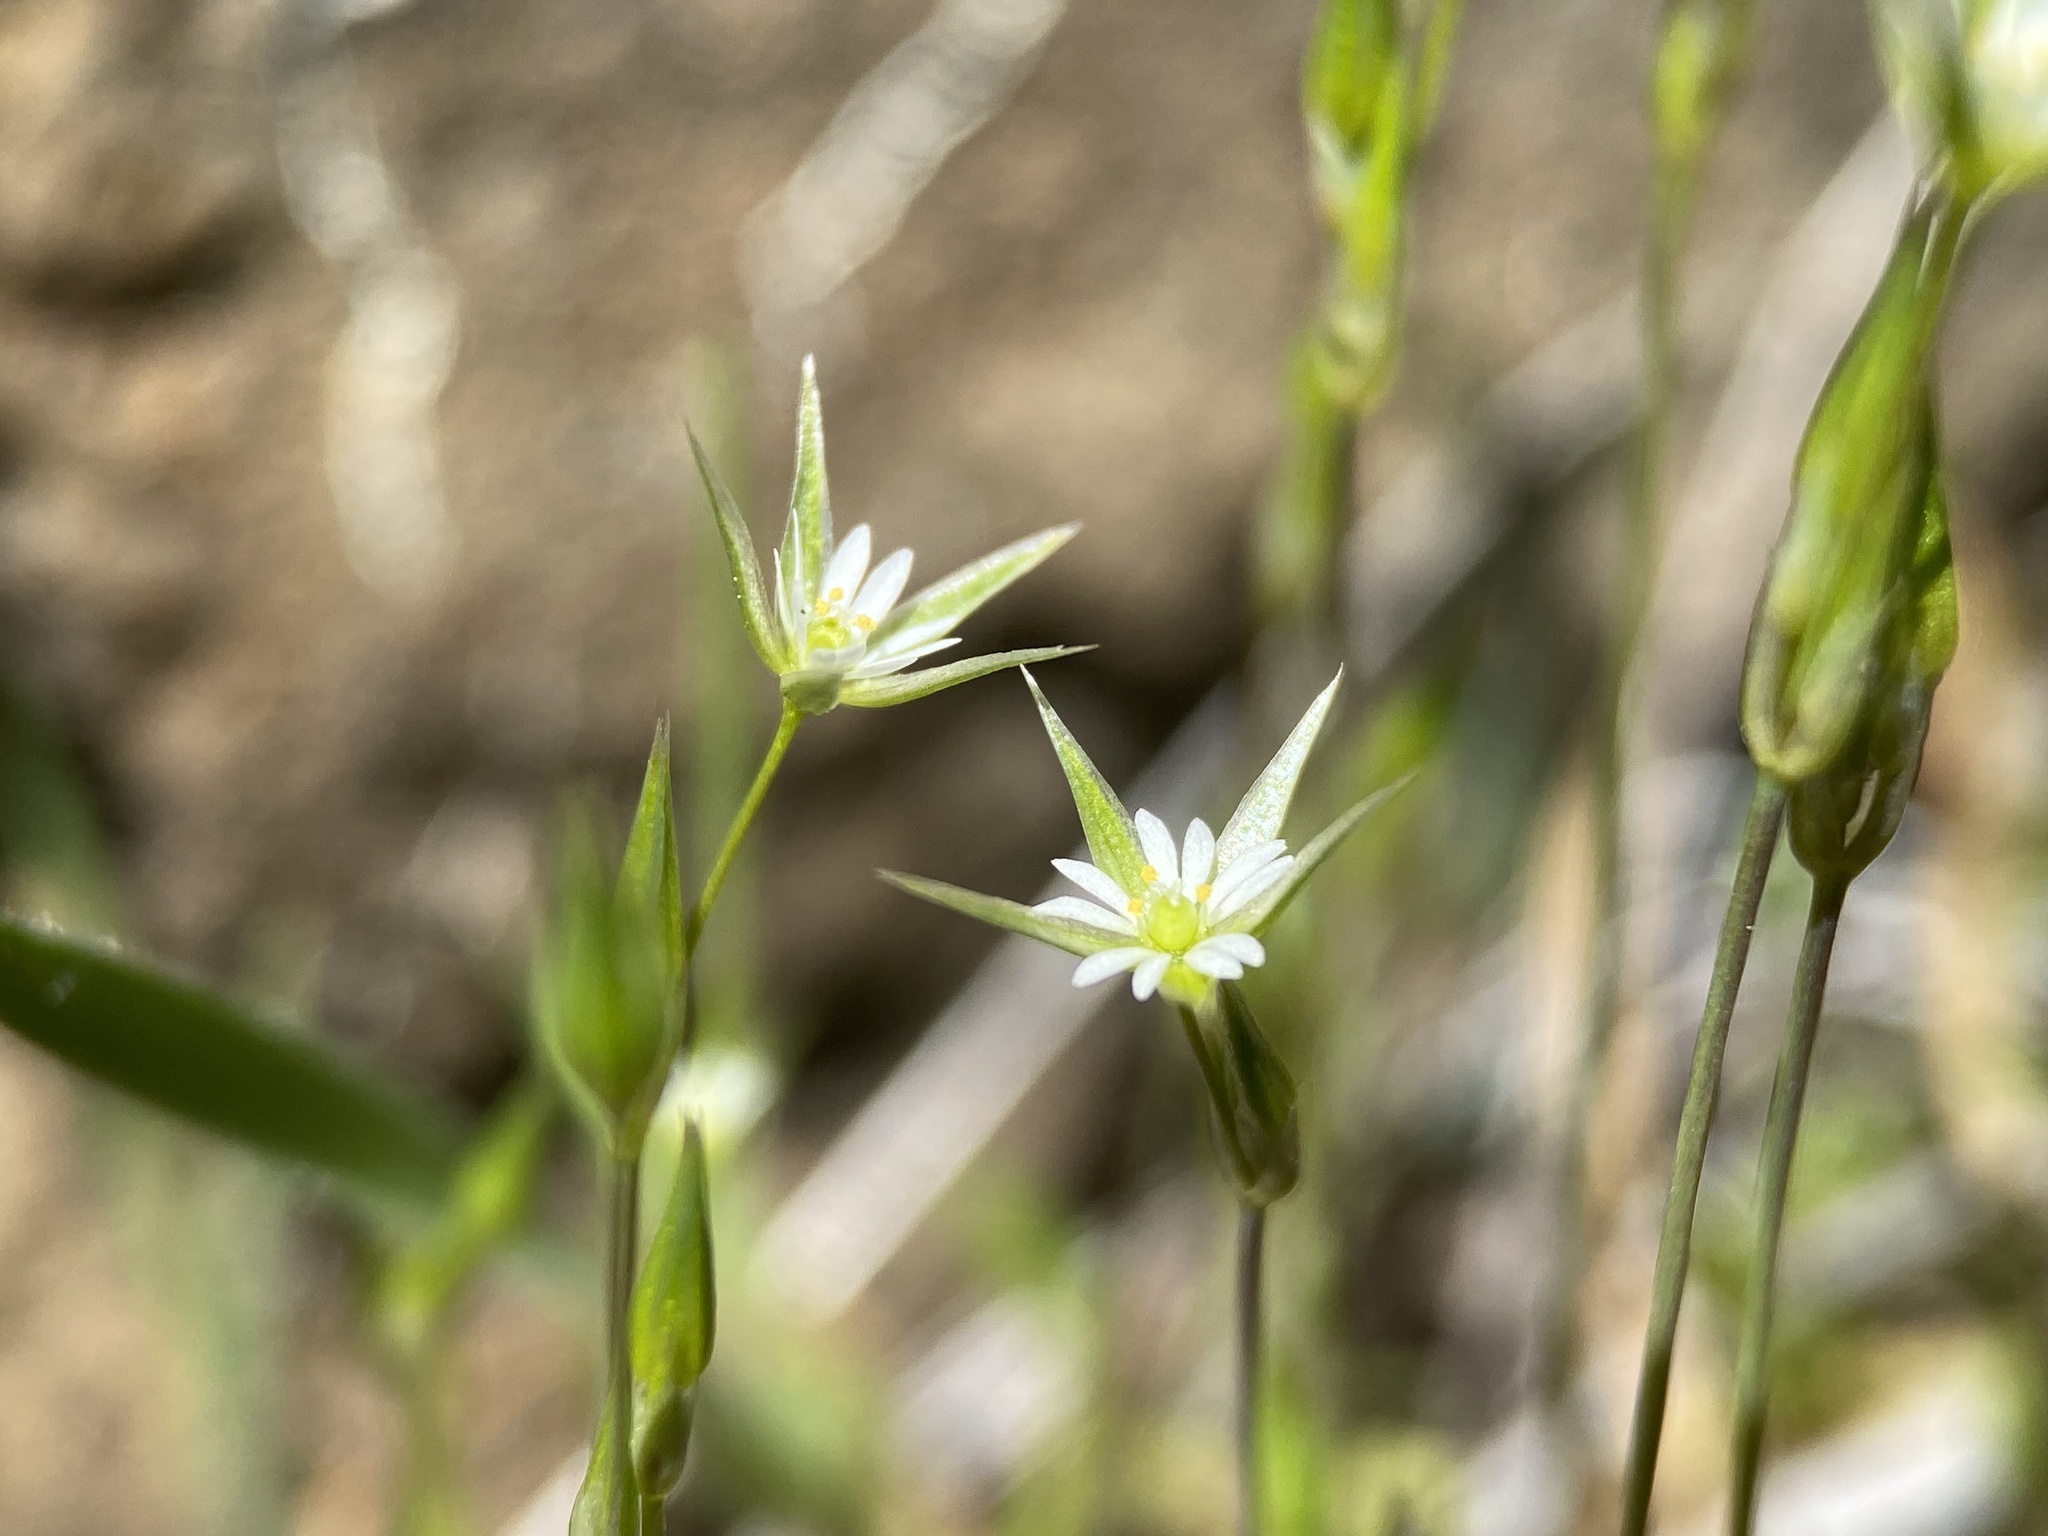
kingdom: Plantae
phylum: Tracheophyta
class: Magnoliopsida
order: Caryophyllales
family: Caryophyllaceae
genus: Stellaria
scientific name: Stellaria nitens
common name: Shining starwort
